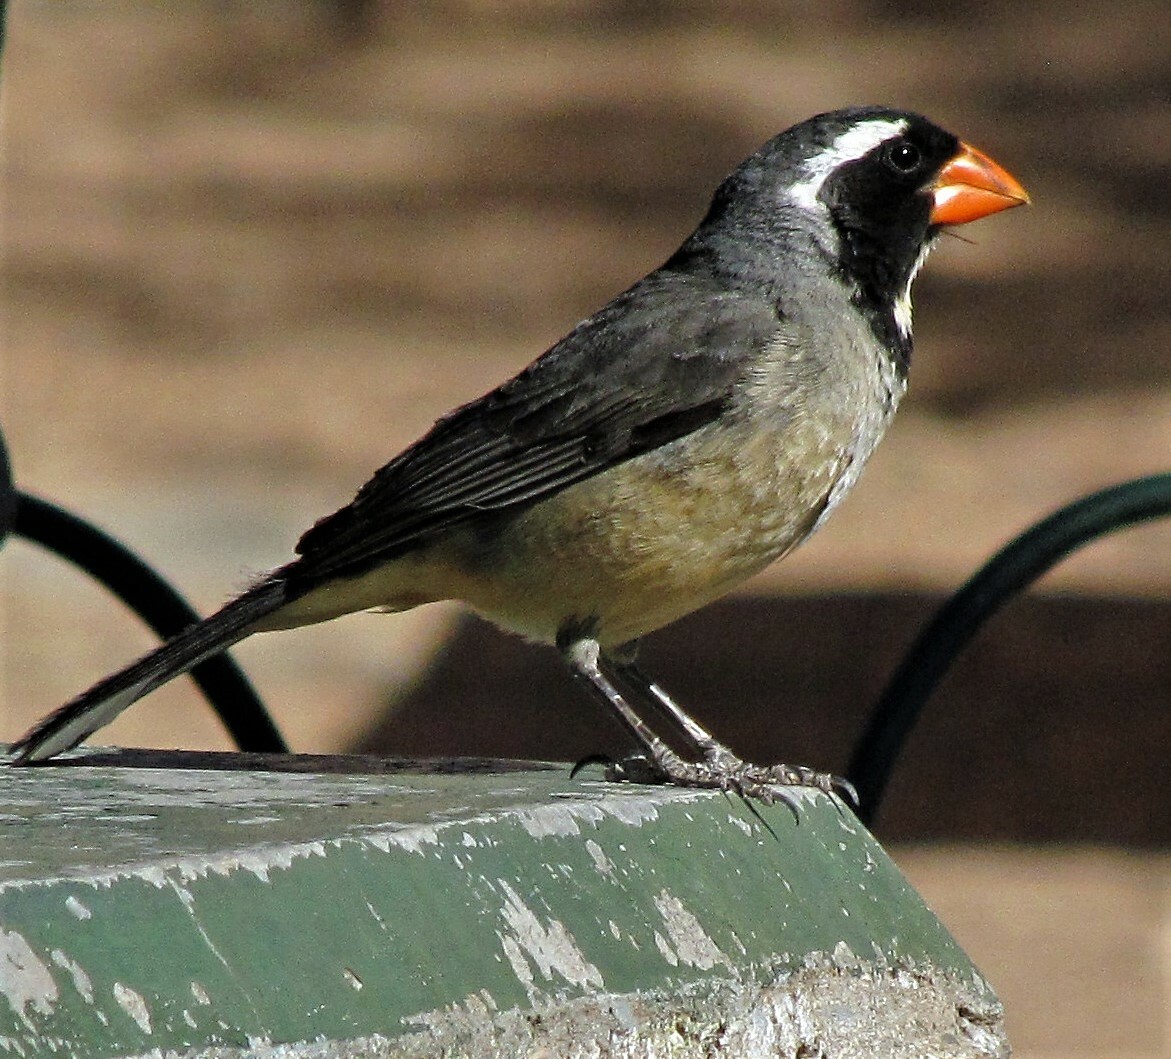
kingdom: Animalia
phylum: Chordata
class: Aves
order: Passeriformes
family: Thraupidae
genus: Saltator
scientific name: Saltator aurantiirostris
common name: Golden-billed saltator
